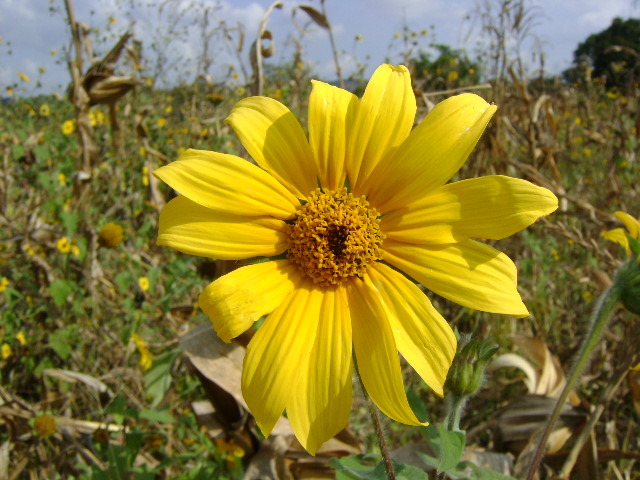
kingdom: Plantae
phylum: Tracheophyta
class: Magnoliopsida
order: Asterales
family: Asteraceae
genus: Tithonia
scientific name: Tithonia tubaeformis
